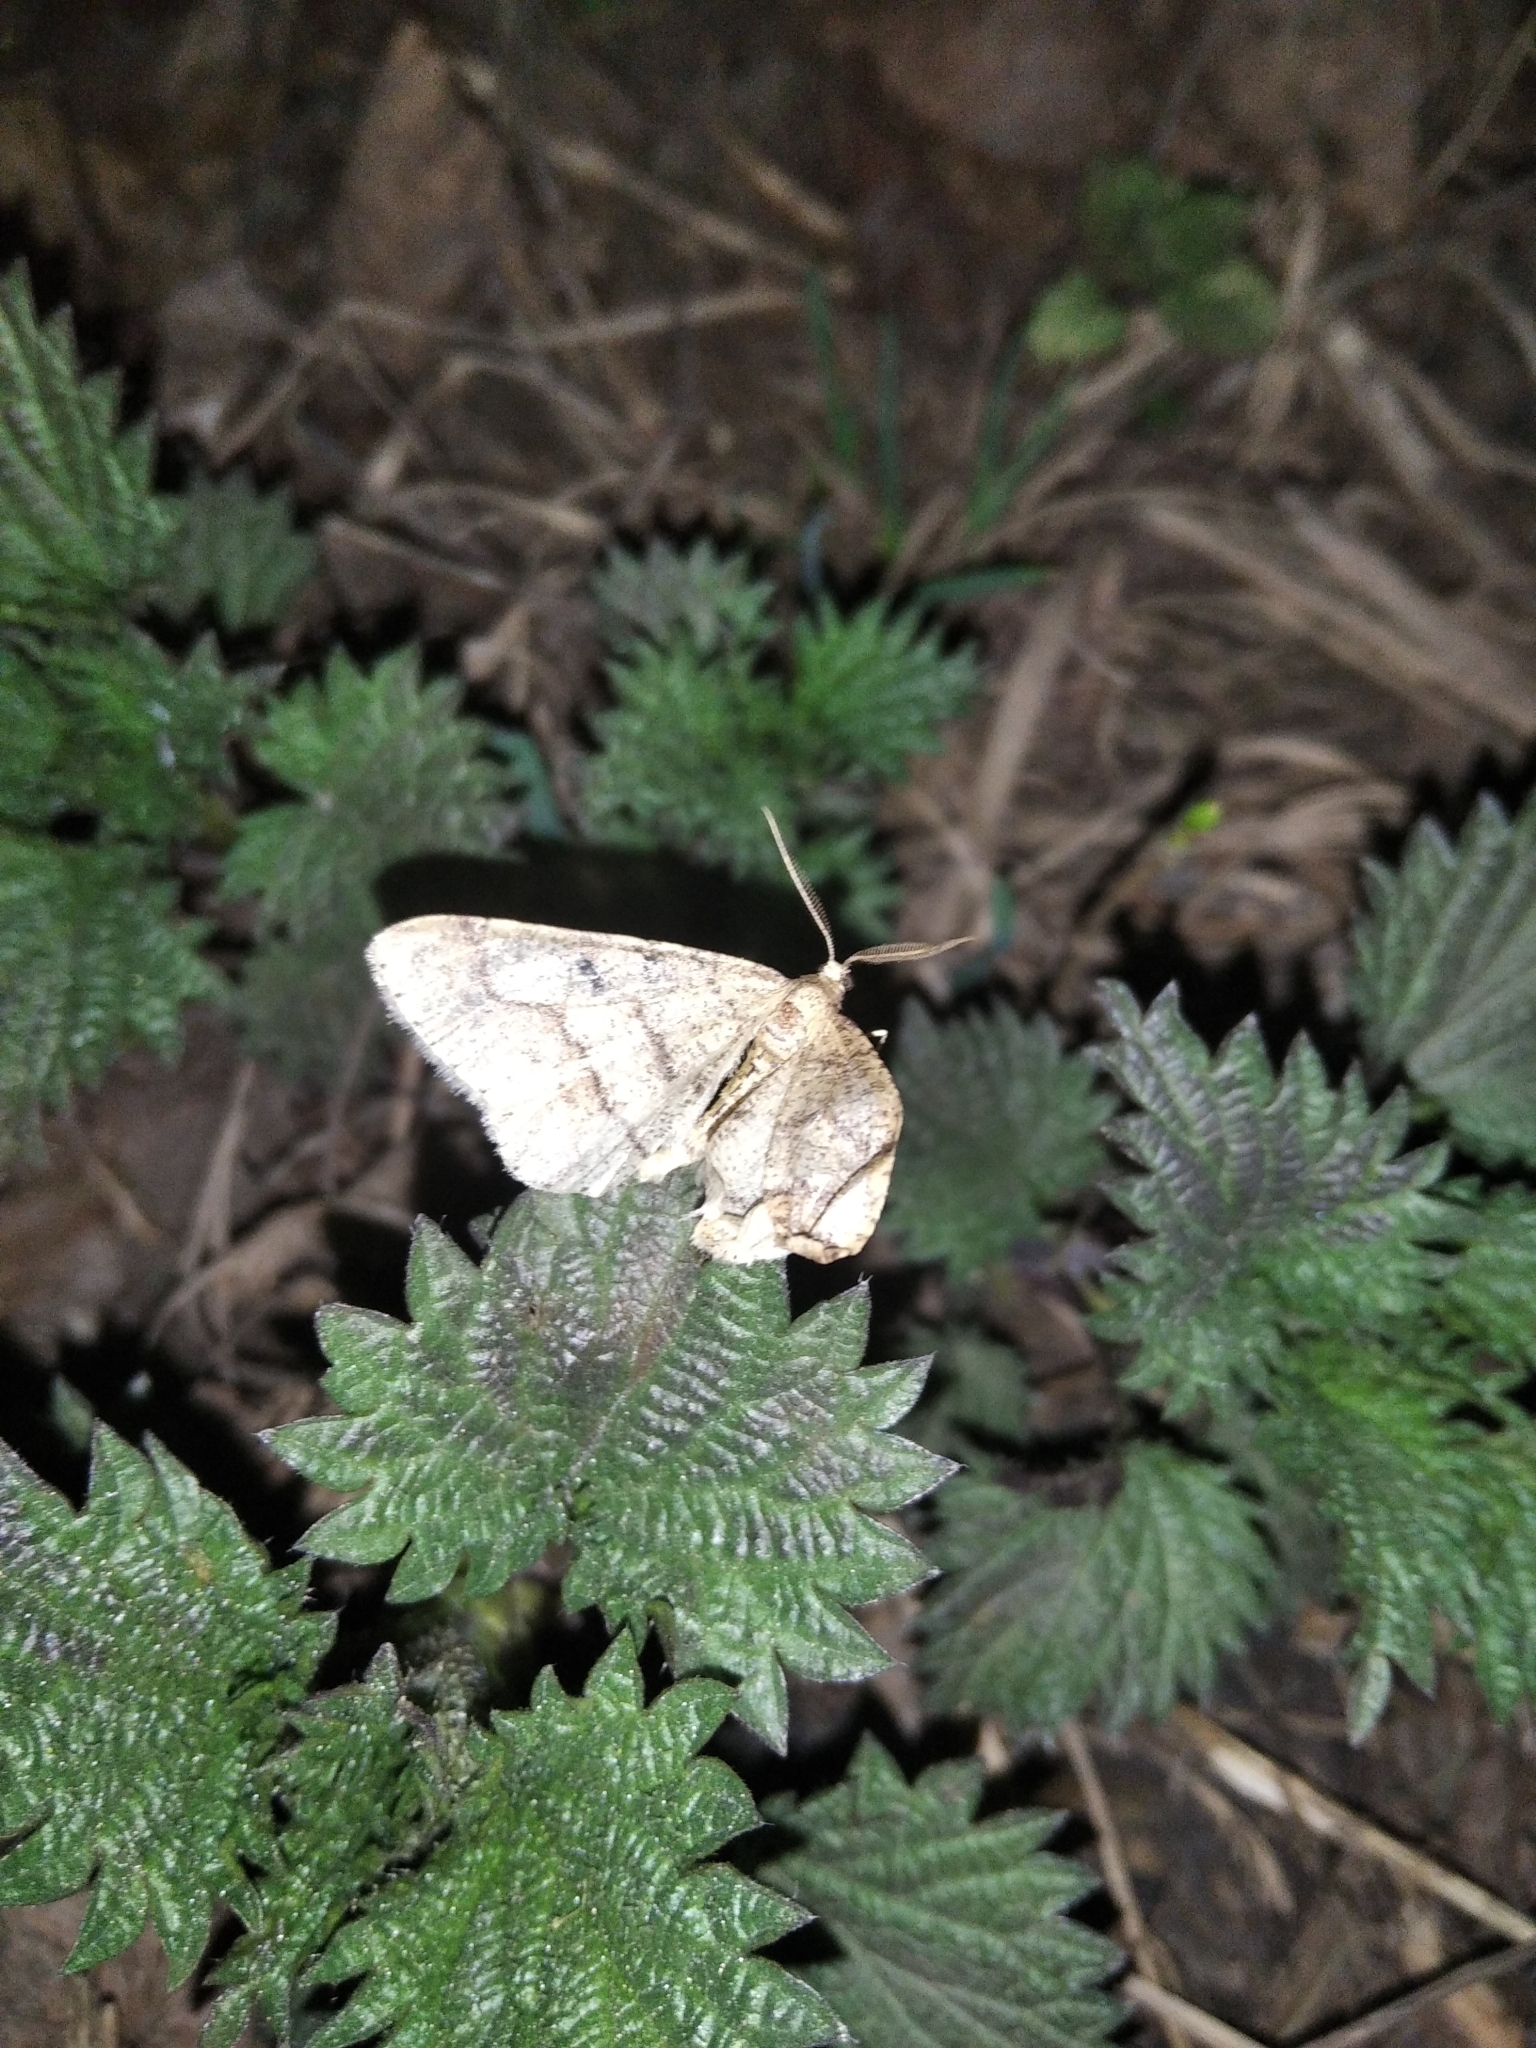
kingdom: Animalia
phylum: Arthropoda
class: Insecta
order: Lepidoptera
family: Geometridae
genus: Agriopis
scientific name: Agriopis marginaria
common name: Dotted border
